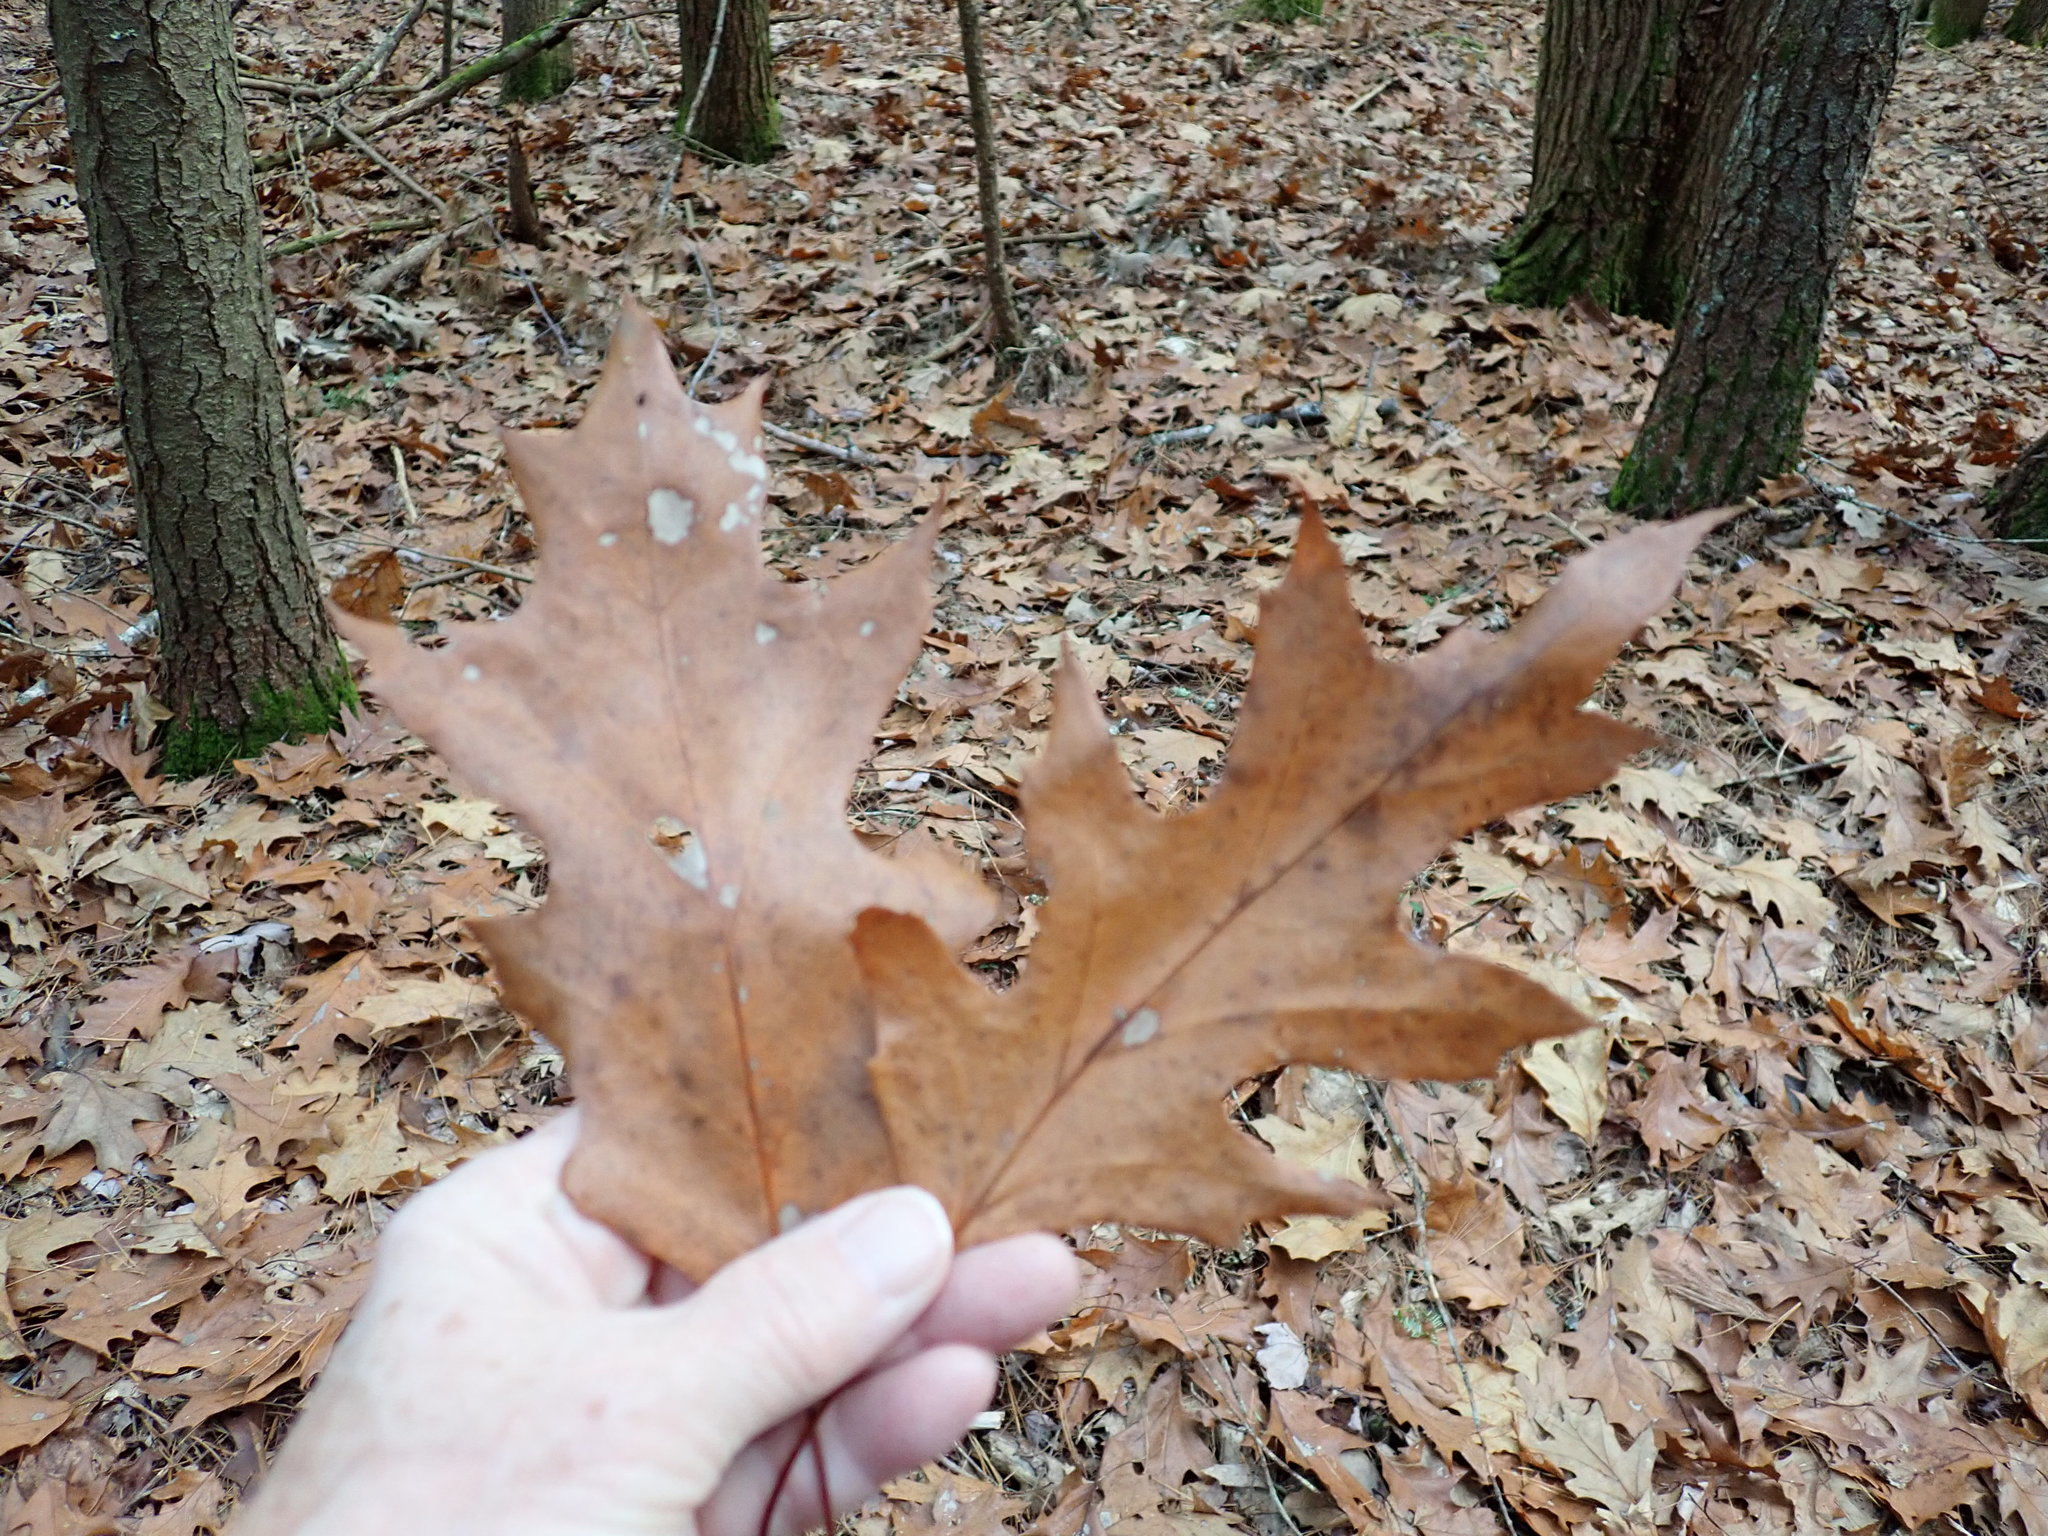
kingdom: Plantae
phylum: Tracheophyta
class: Magnoliopsida
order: Fagales
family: Fagaceae
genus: Quercus
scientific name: Quercus rubra
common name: Red oak
